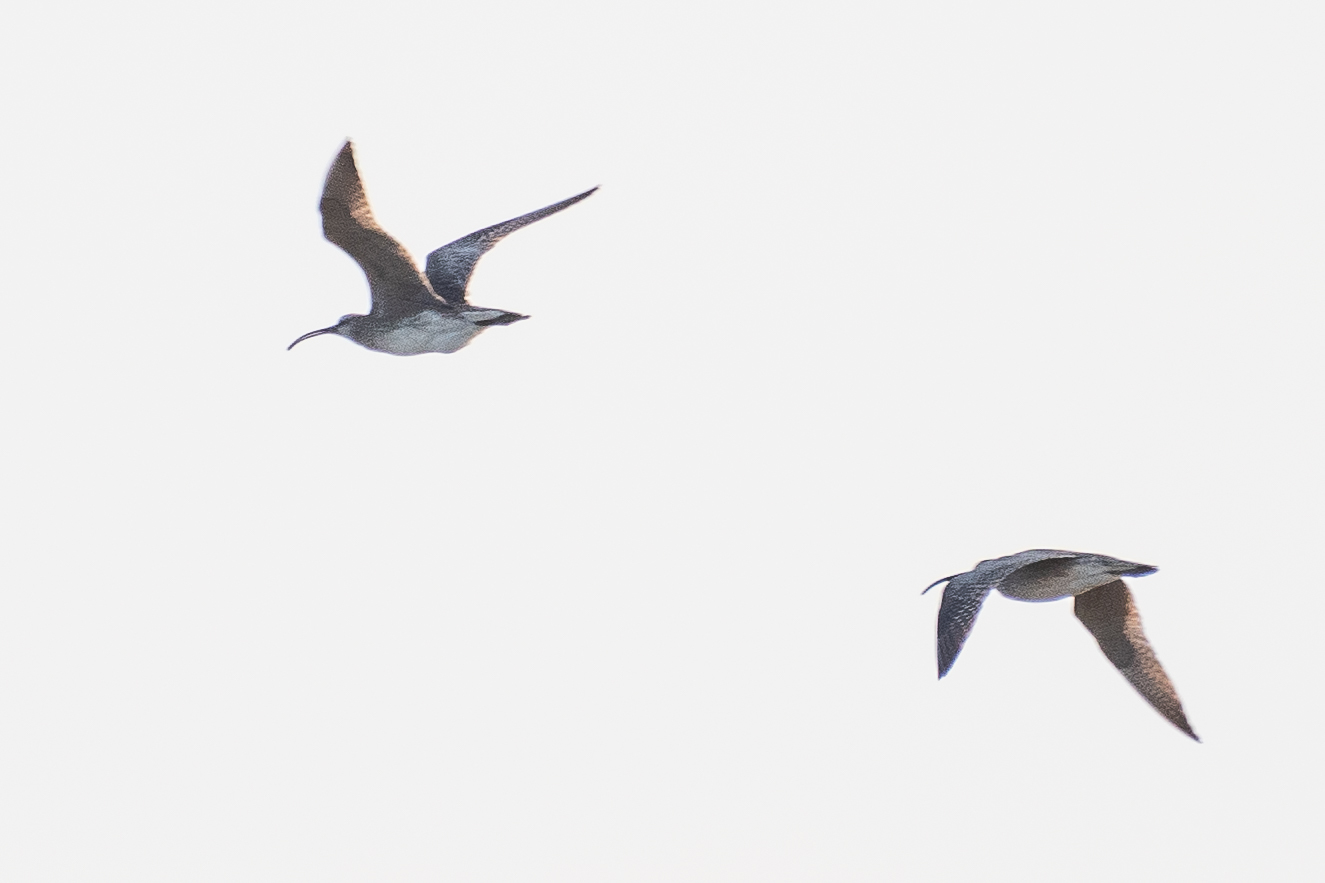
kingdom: Animalia
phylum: Chordata
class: Aves
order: Charadriiformes
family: Scolopacidae
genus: Numenius
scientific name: Numenius phaeopus
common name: Whimbrel
